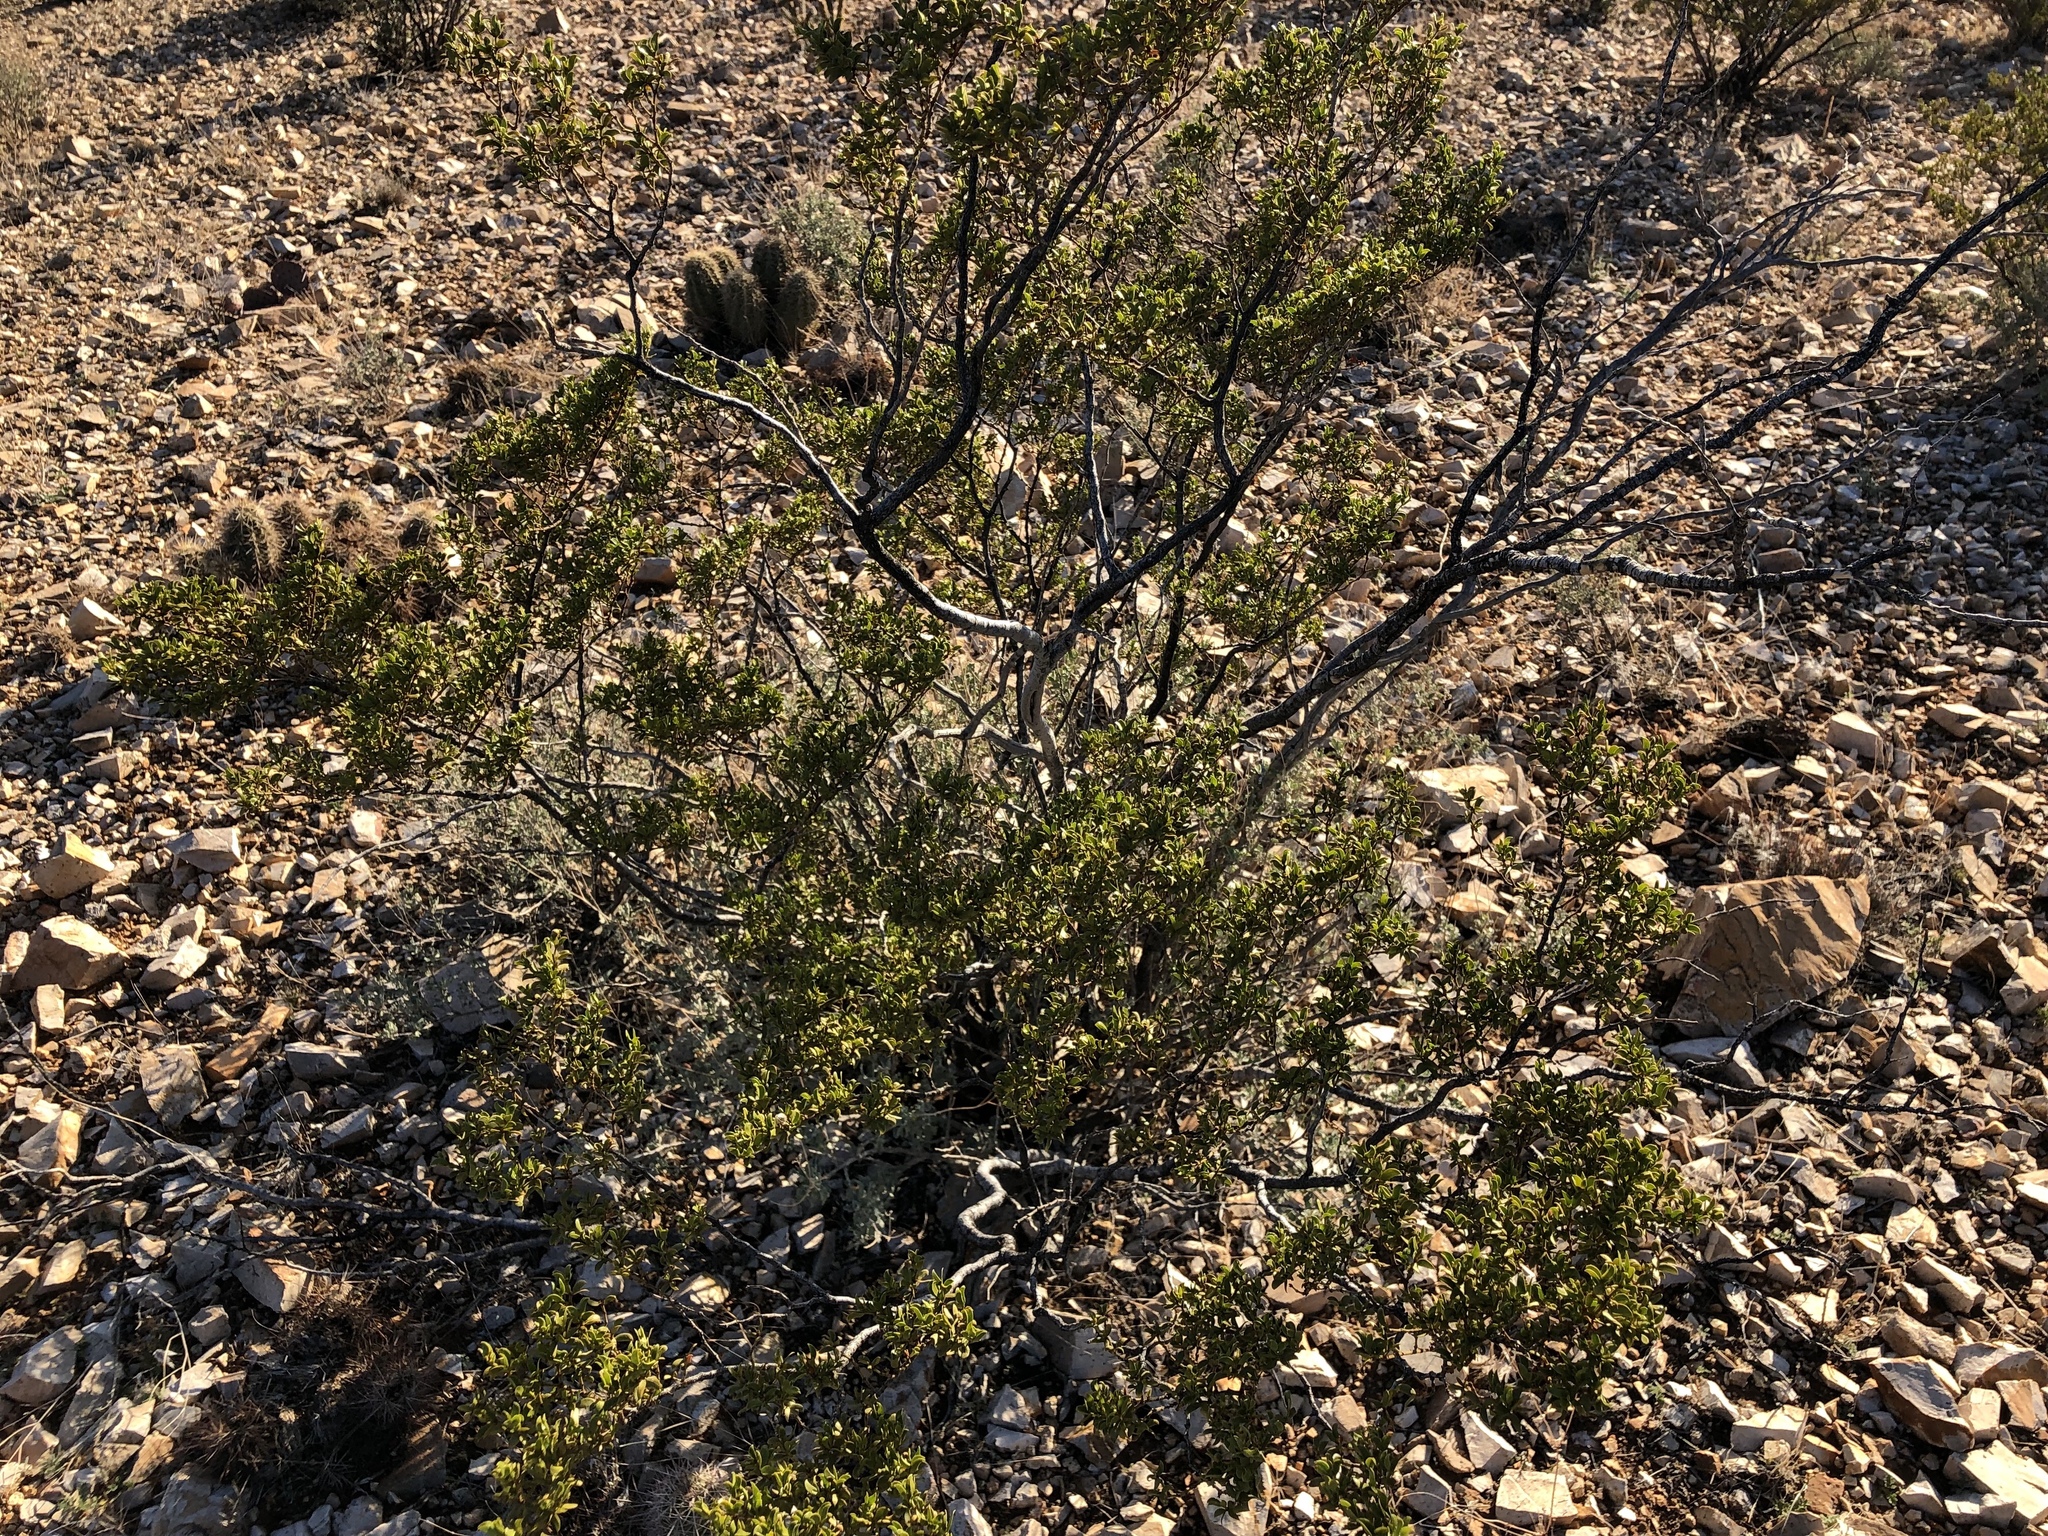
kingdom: Plantae
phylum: Tracheophyta
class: Magnoliopsida
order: Zygophyllales
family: Zygophyllaceae
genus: Larrea
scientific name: Larrea tridentata
